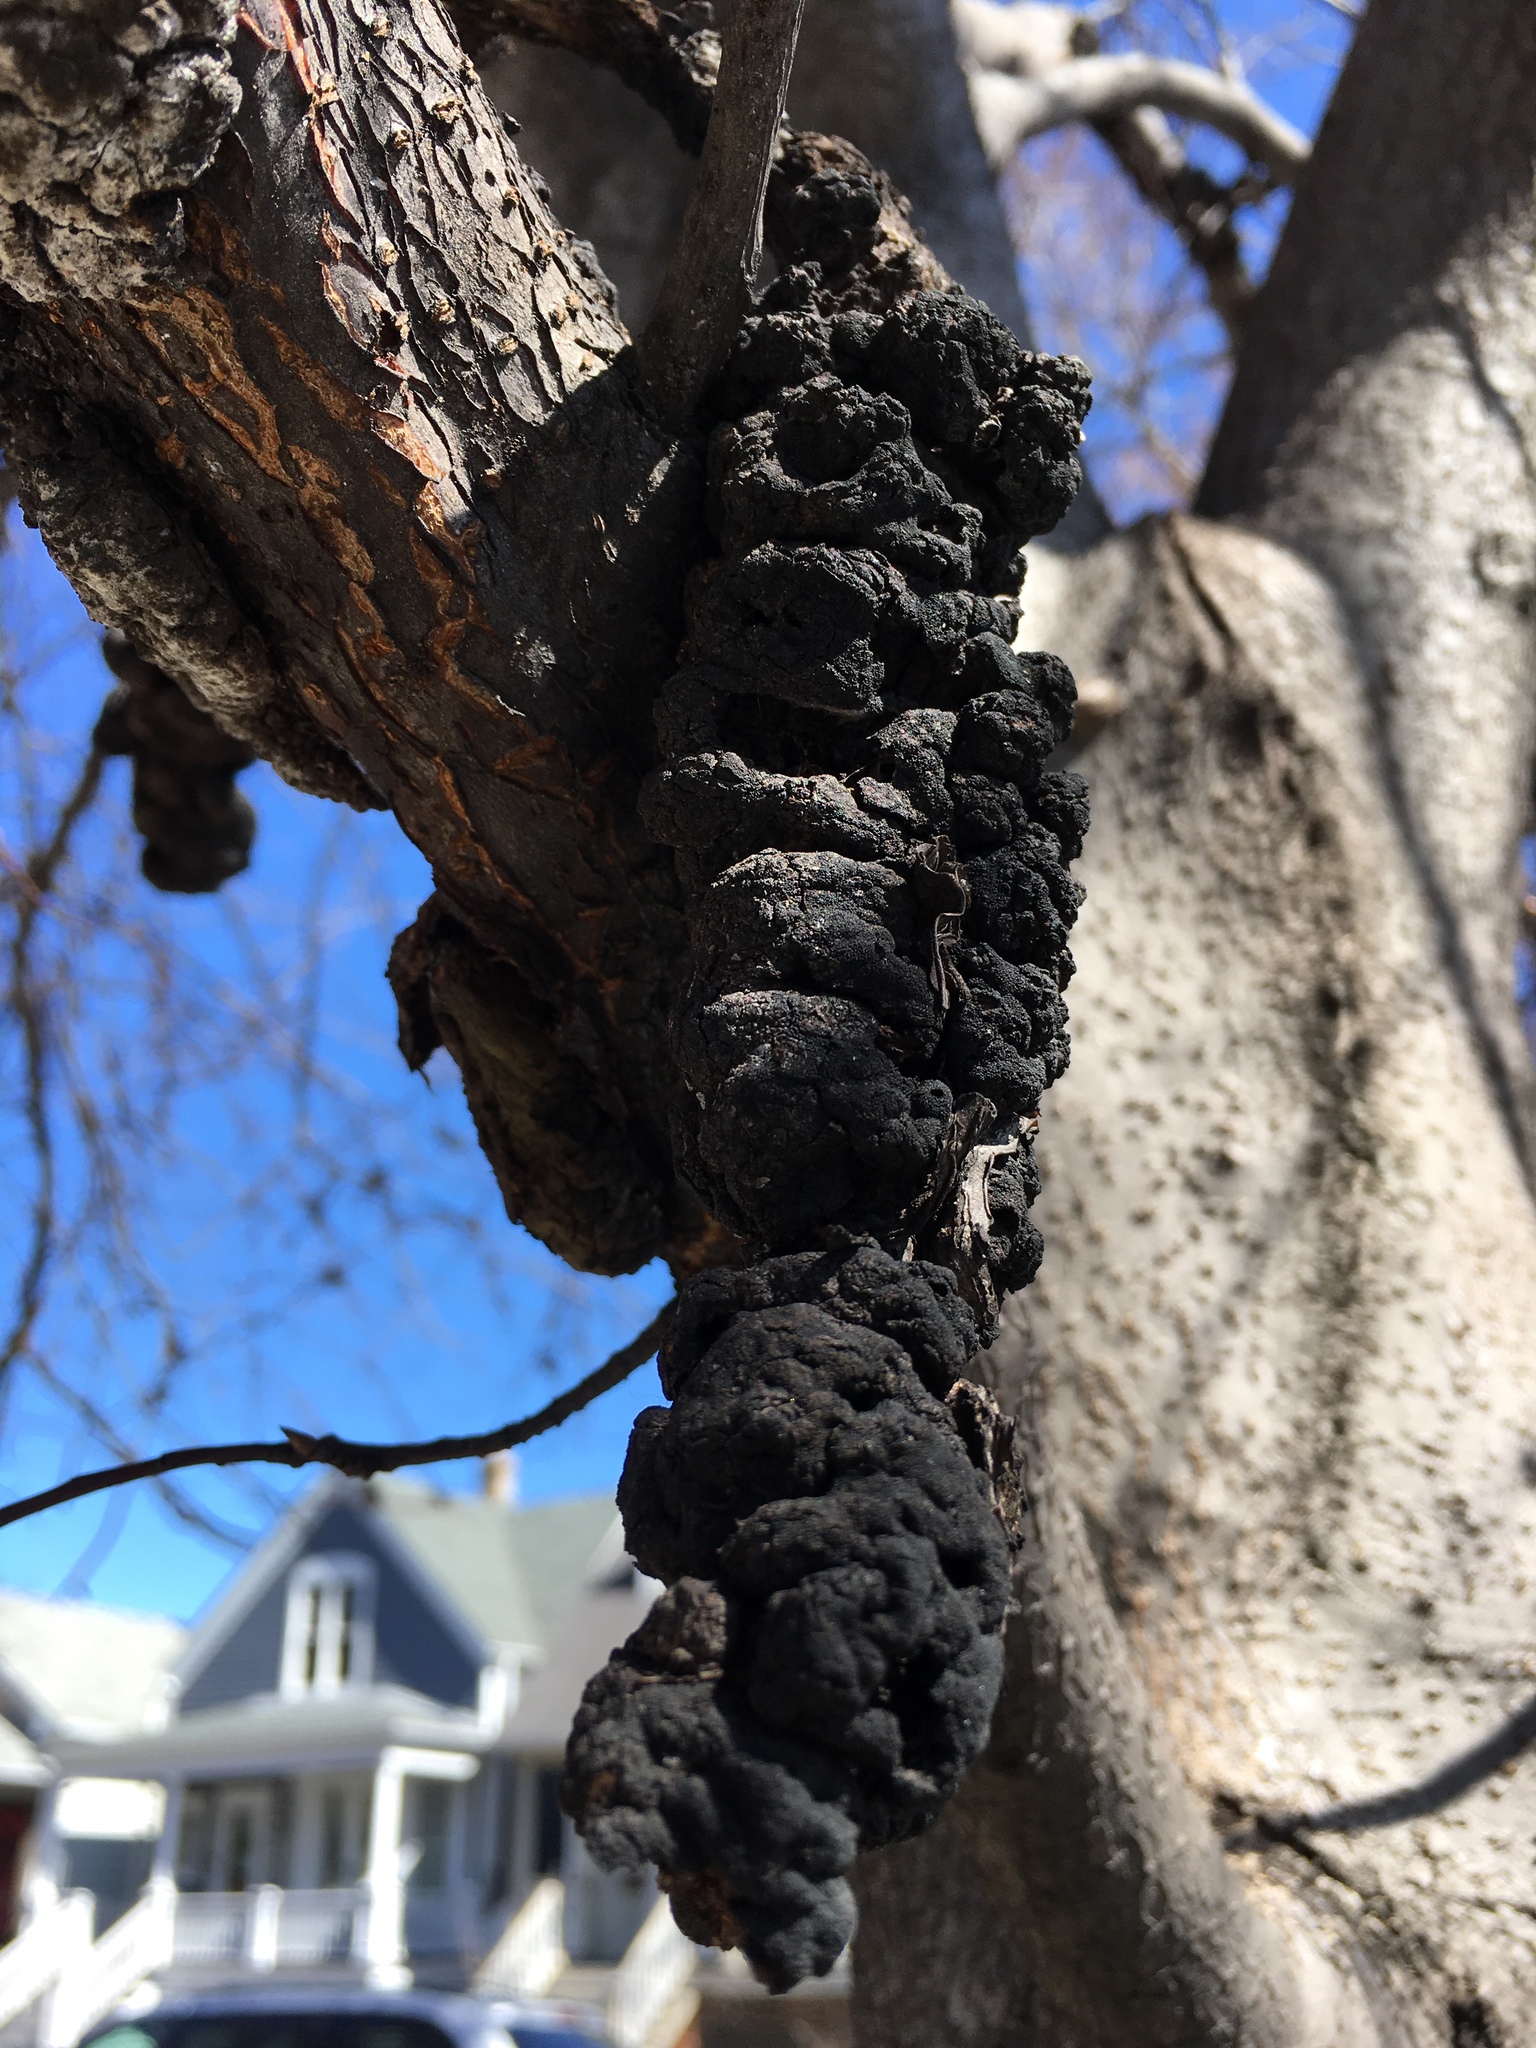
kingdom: Fungi
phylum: Ascomycota
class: Dothideomycetes
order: Venturiales
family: Venturiaceae
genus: Apiosporina
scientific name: Apiosporina morbosa
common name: Black knot
